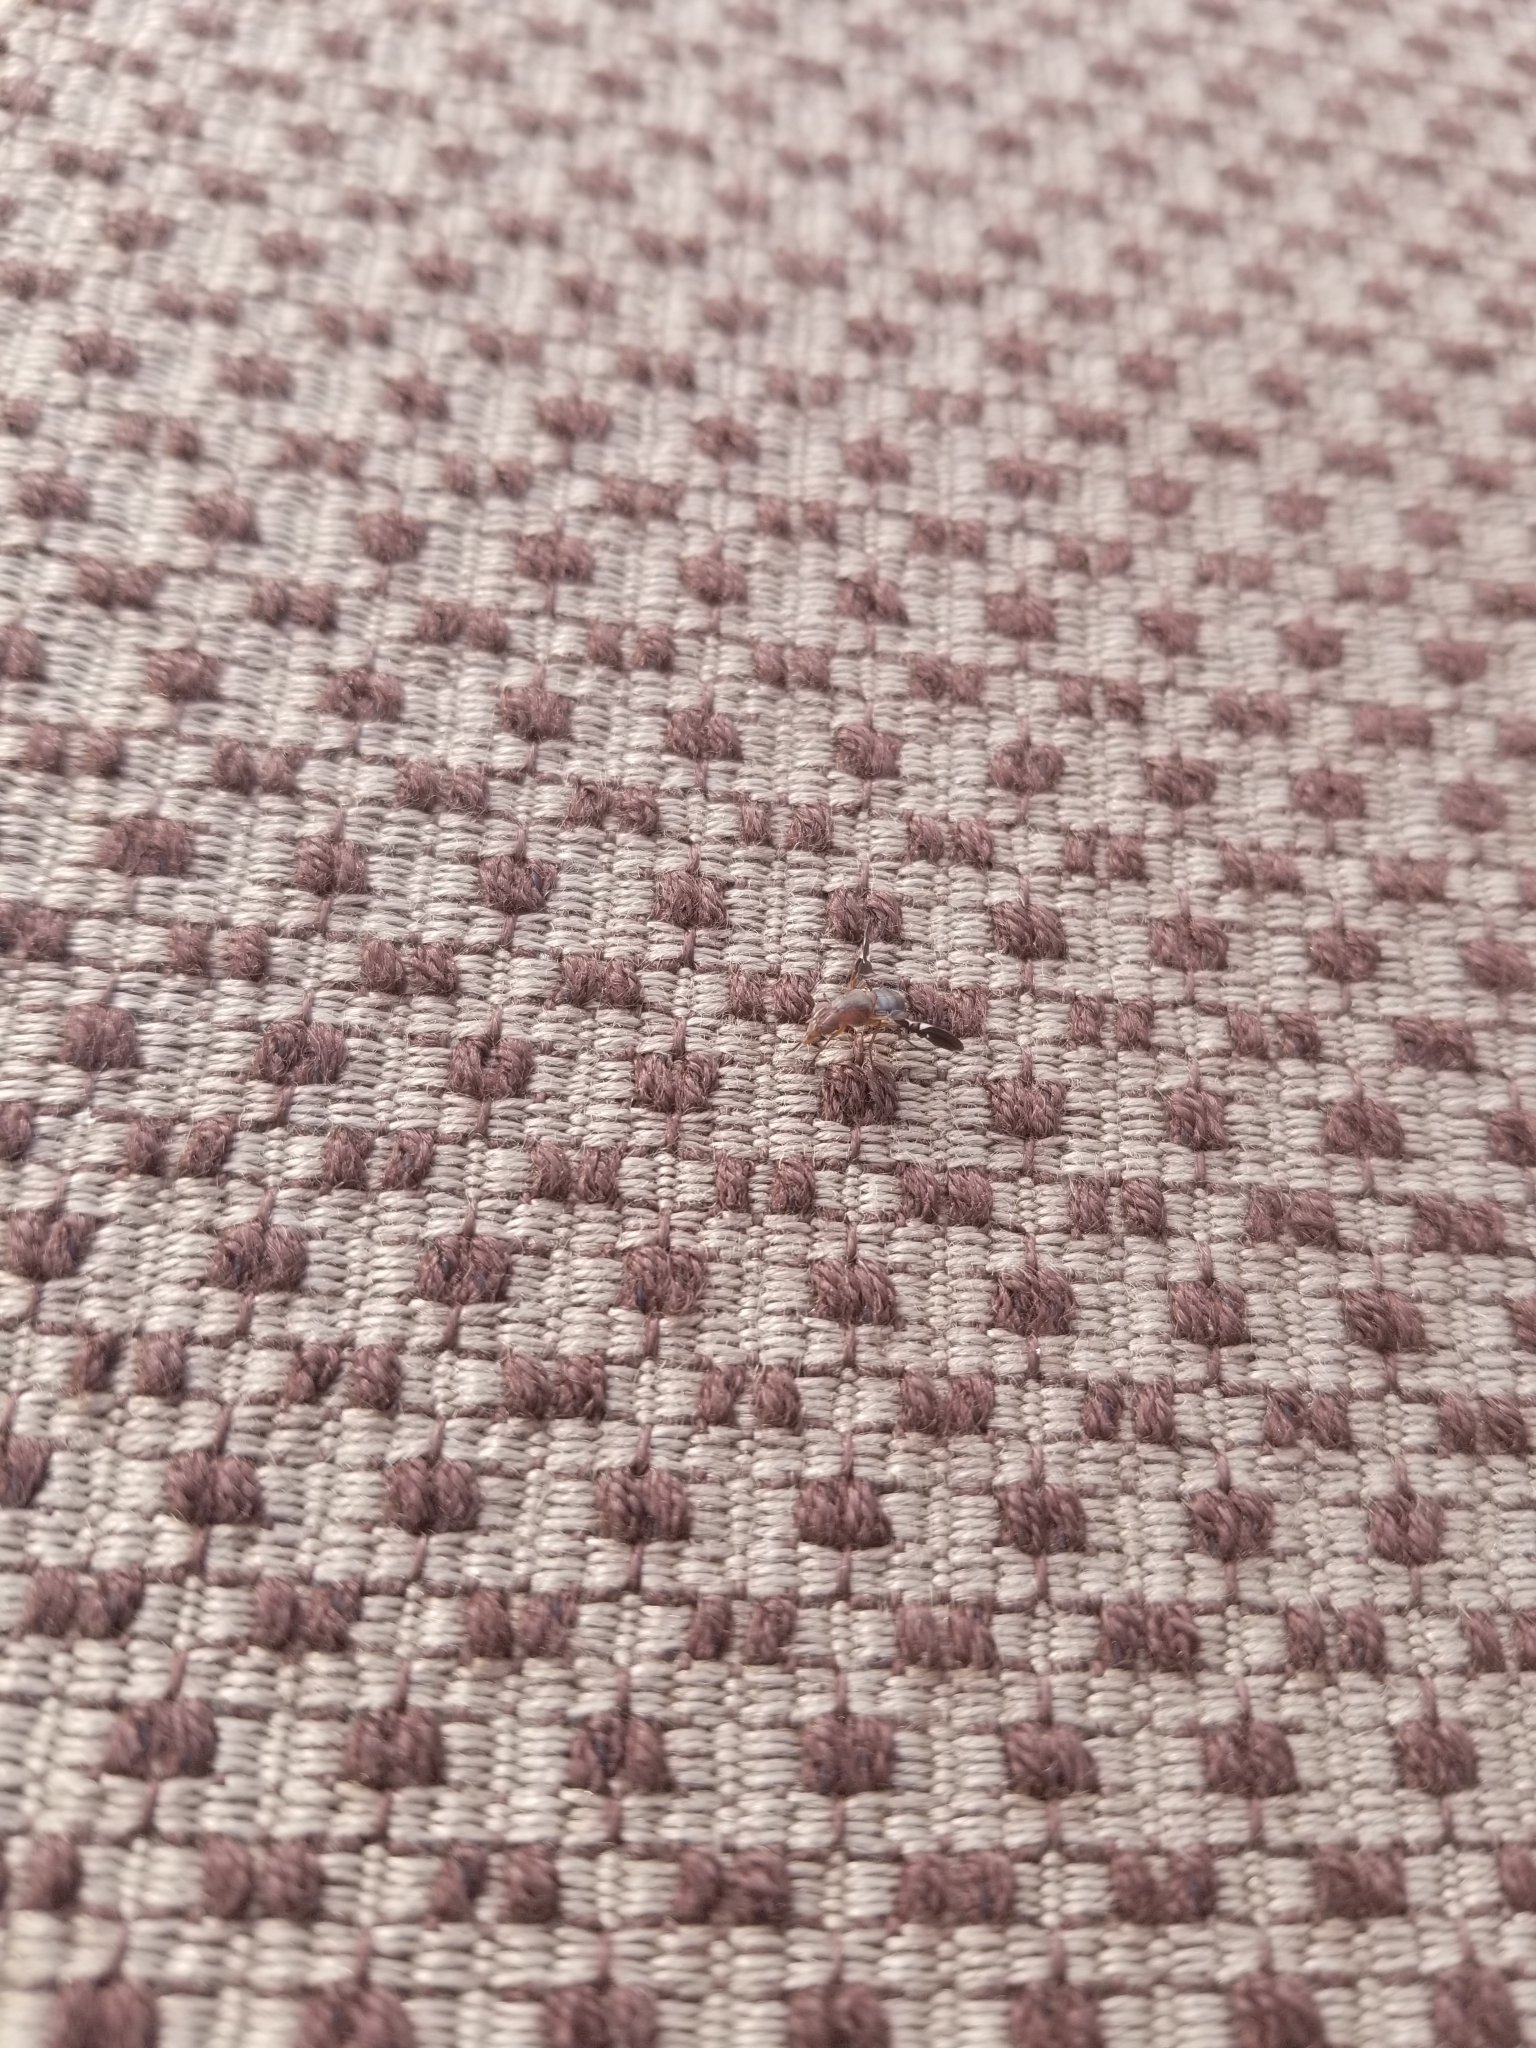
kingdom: Animalia
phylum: Arthropoda
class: Insecta
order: Diptera
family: Ulidiidae
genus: Delphinia
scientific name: Delphinia picta
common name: Common picture-winged fly
